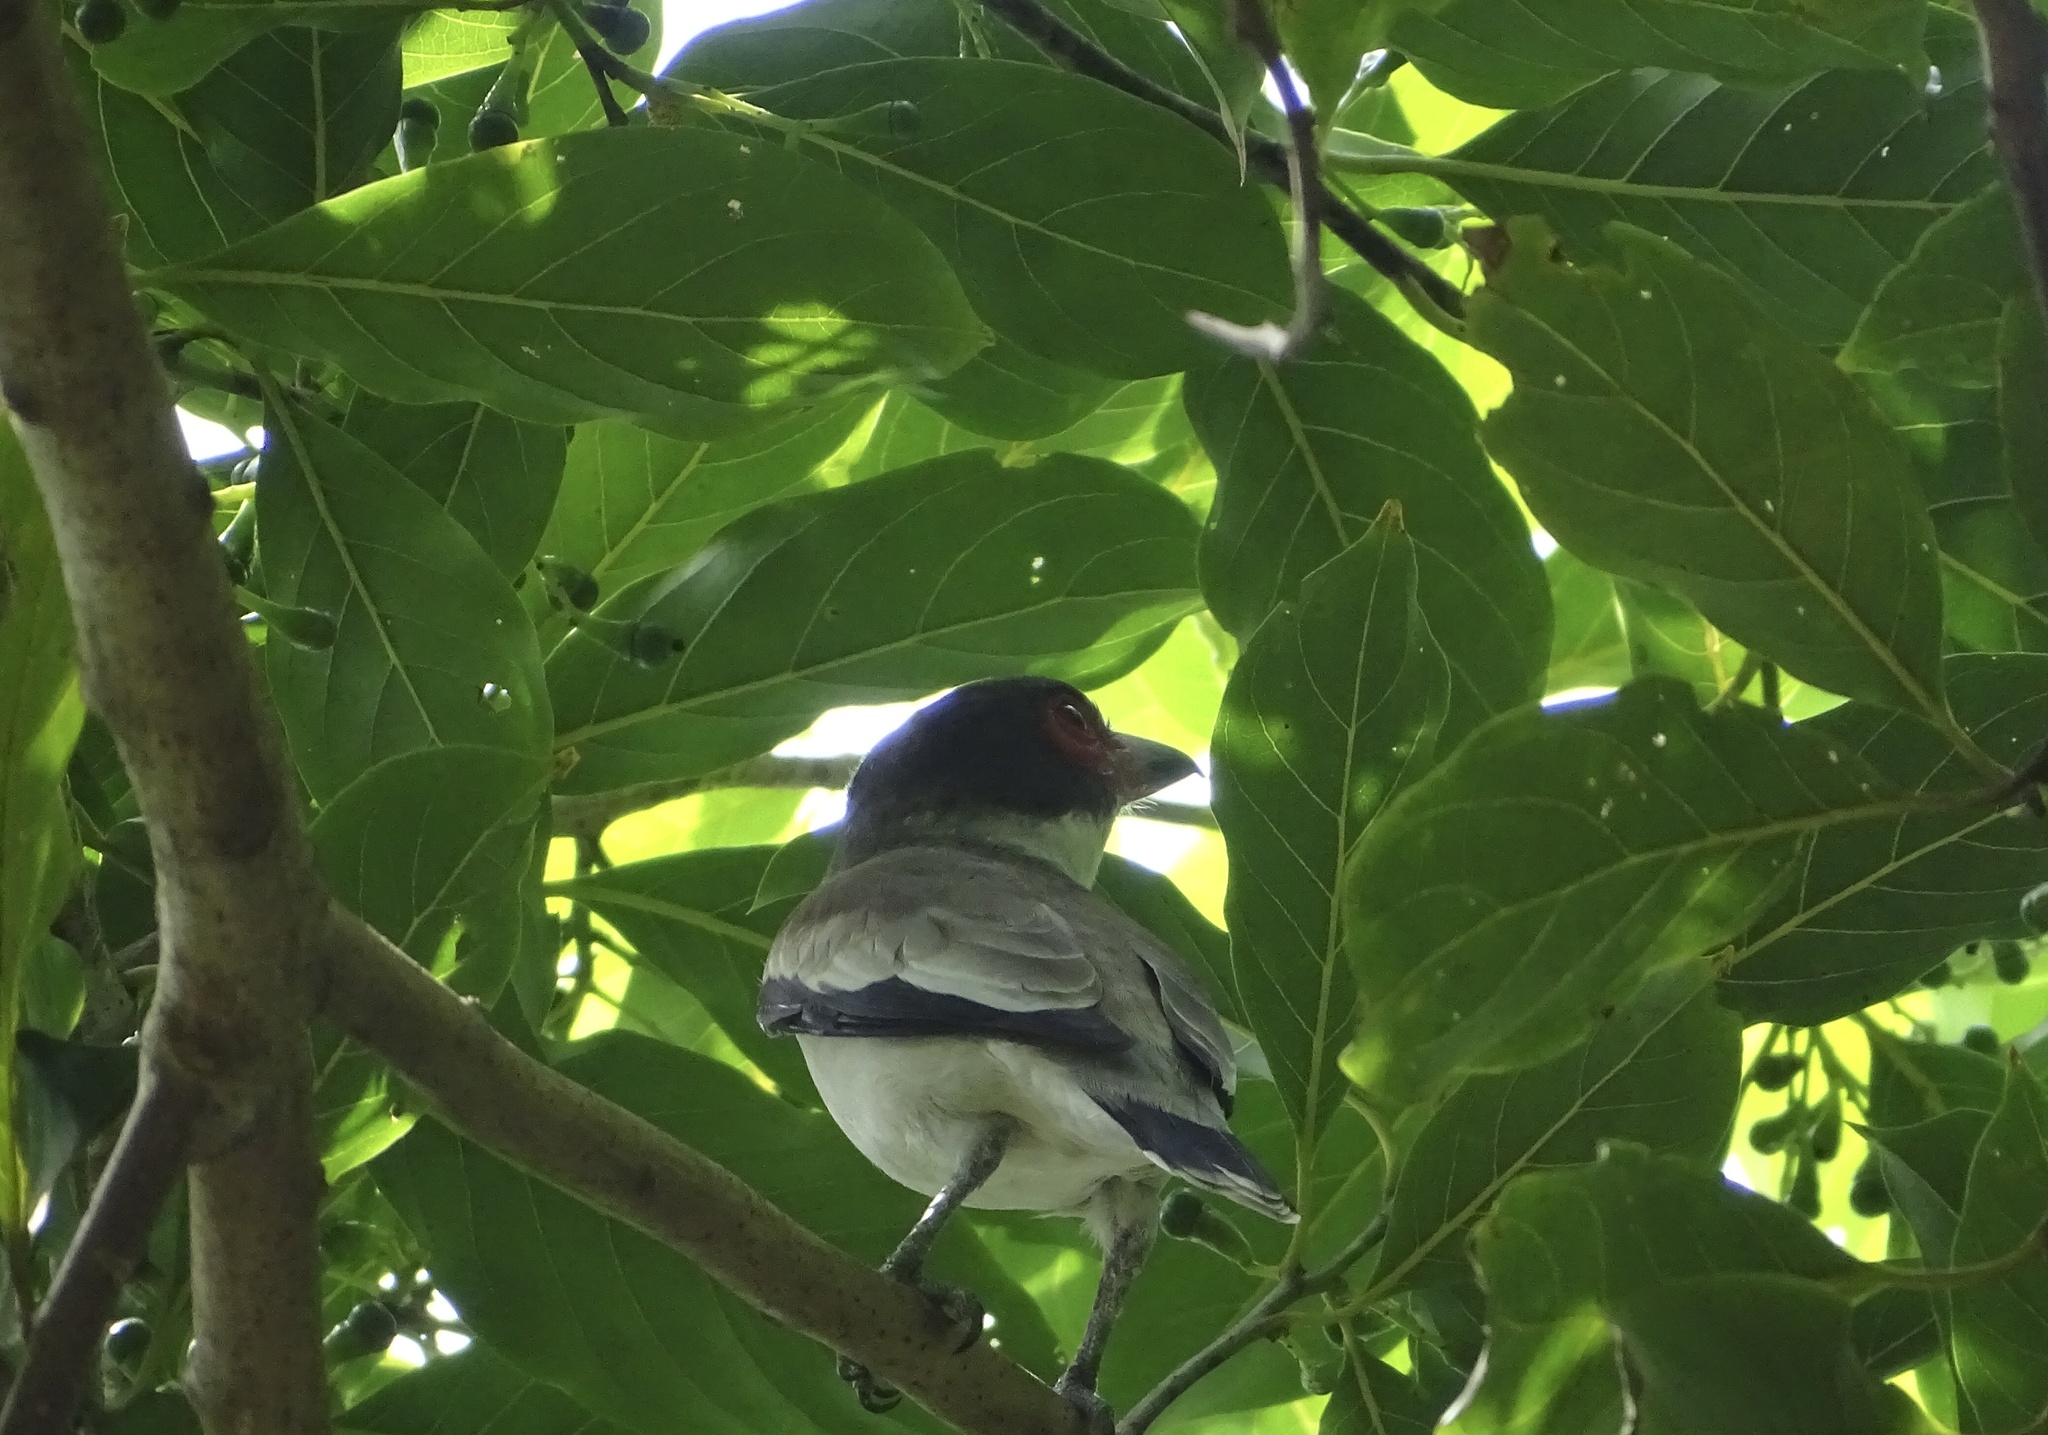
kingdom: Animalia
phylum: Chordata
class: Aves
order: Passeriformes
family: Cotingidae
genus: Tityra
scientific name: Tityra semifasciata
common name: Masked tityra
